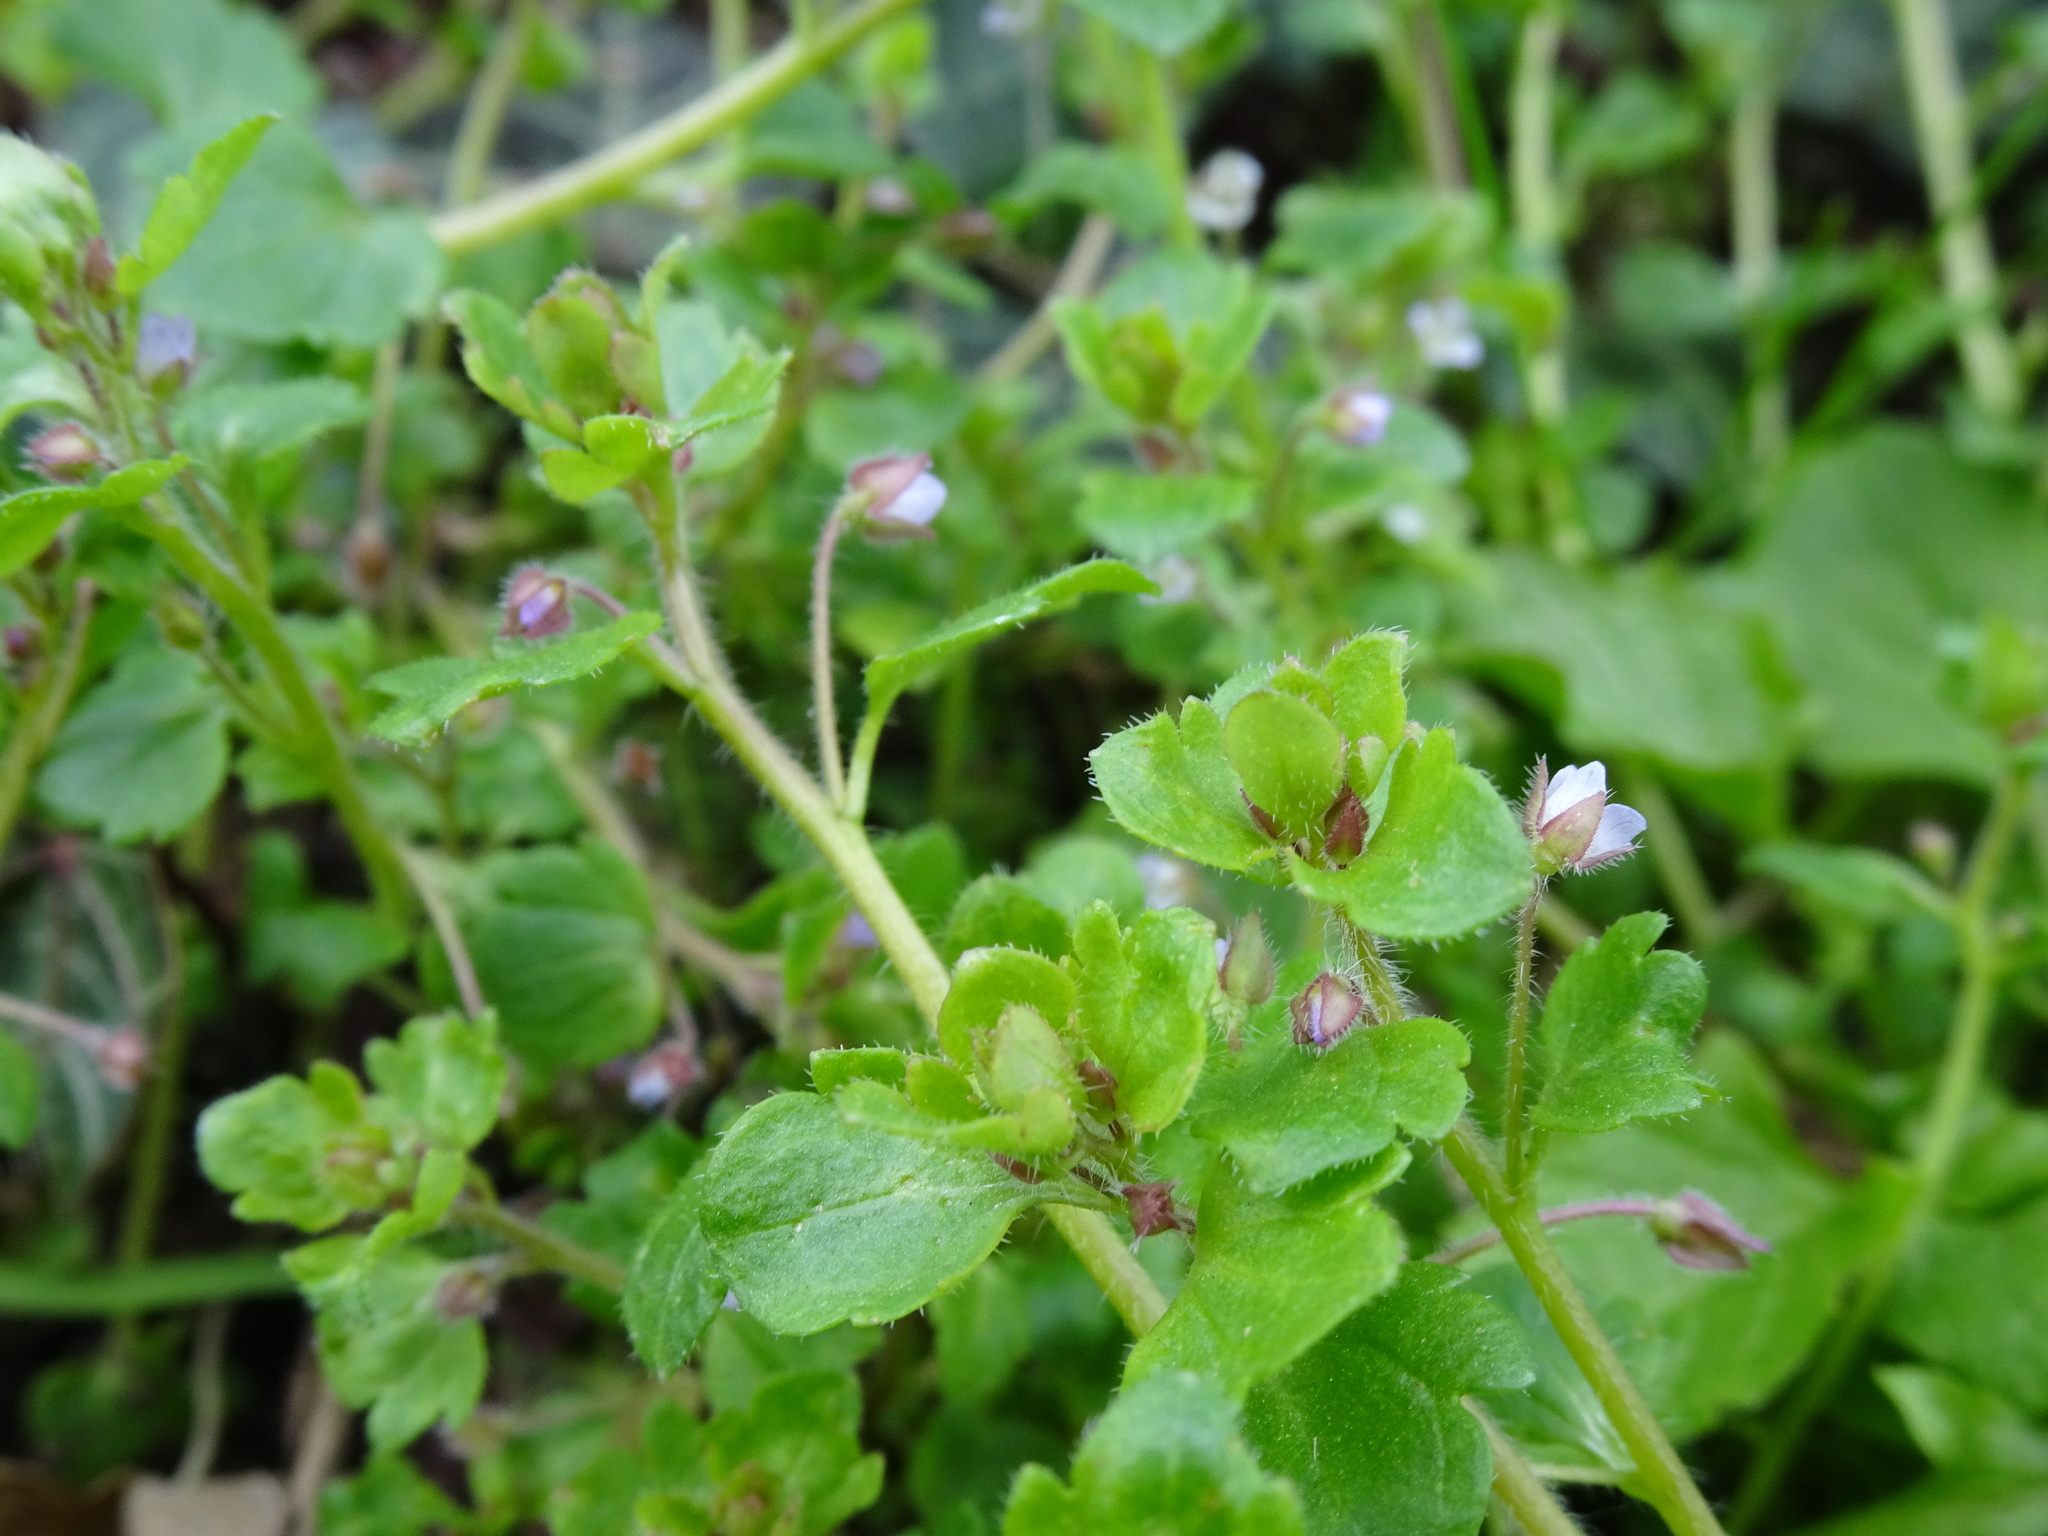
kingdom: Plantae
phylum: Tracheophyta
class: Magnoliopsida
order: Lamiales
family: Plantaginaceae
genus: Veronica
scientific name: Veronica sublobata
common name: False ivy-leaved speedwell
